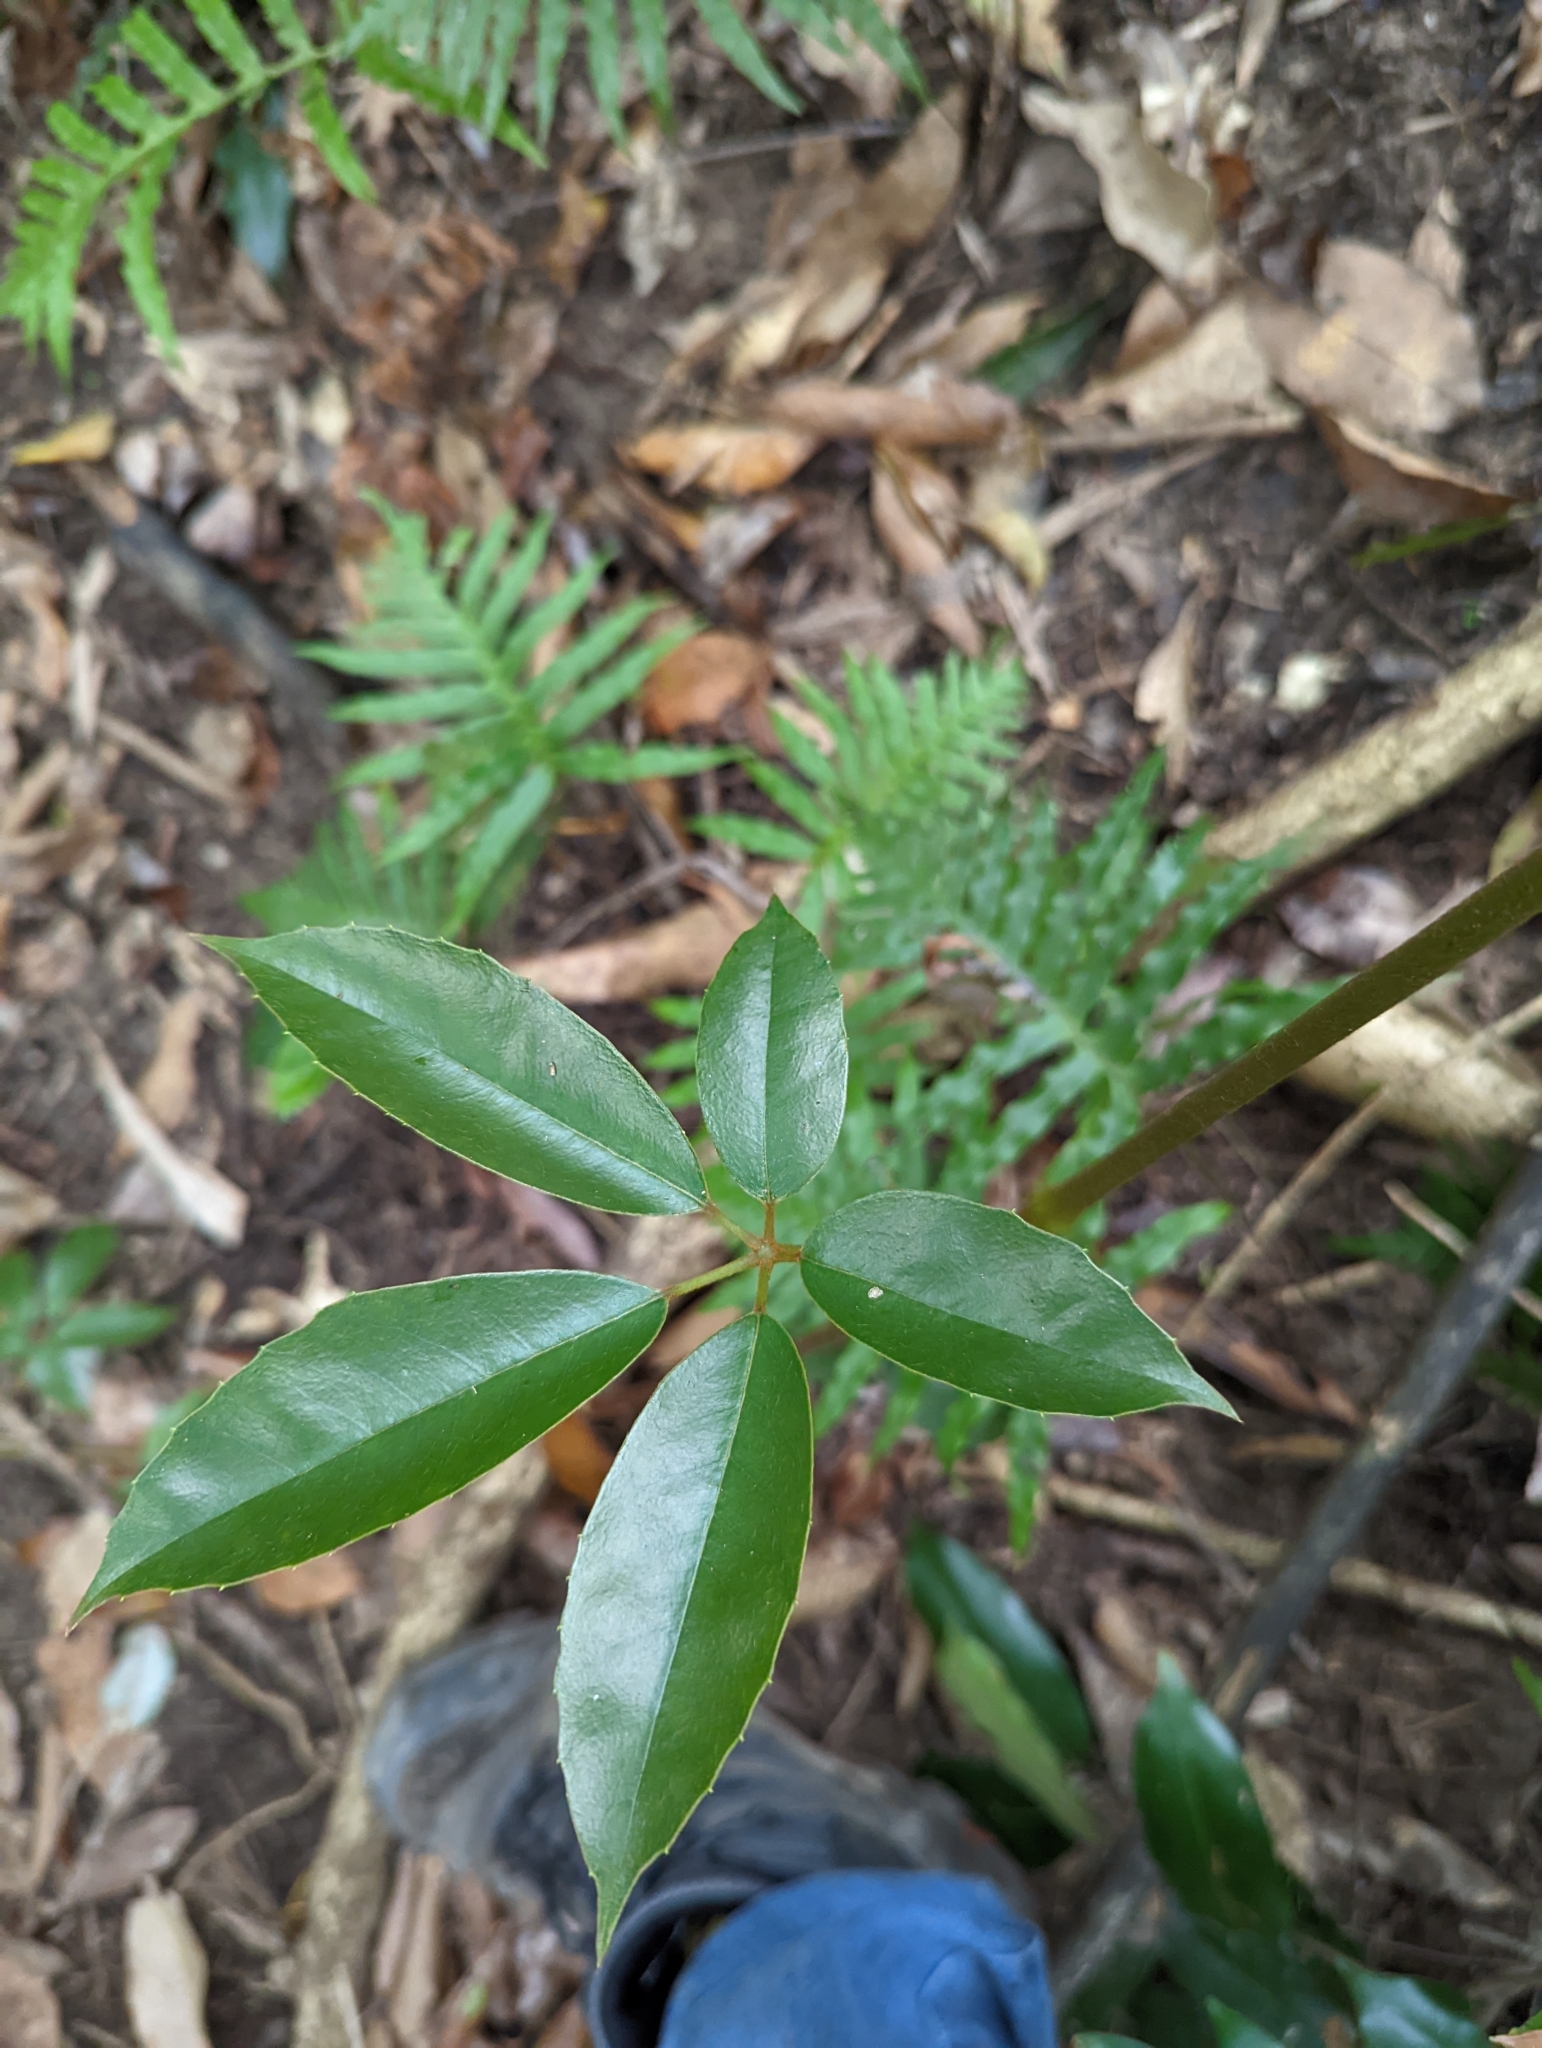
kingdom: Plantae
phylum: Tracheophyta
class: Magnoliopsida
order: Vitales
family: Vitaceae
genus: Nothocissus
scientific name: Nothocissus hypoglauca
